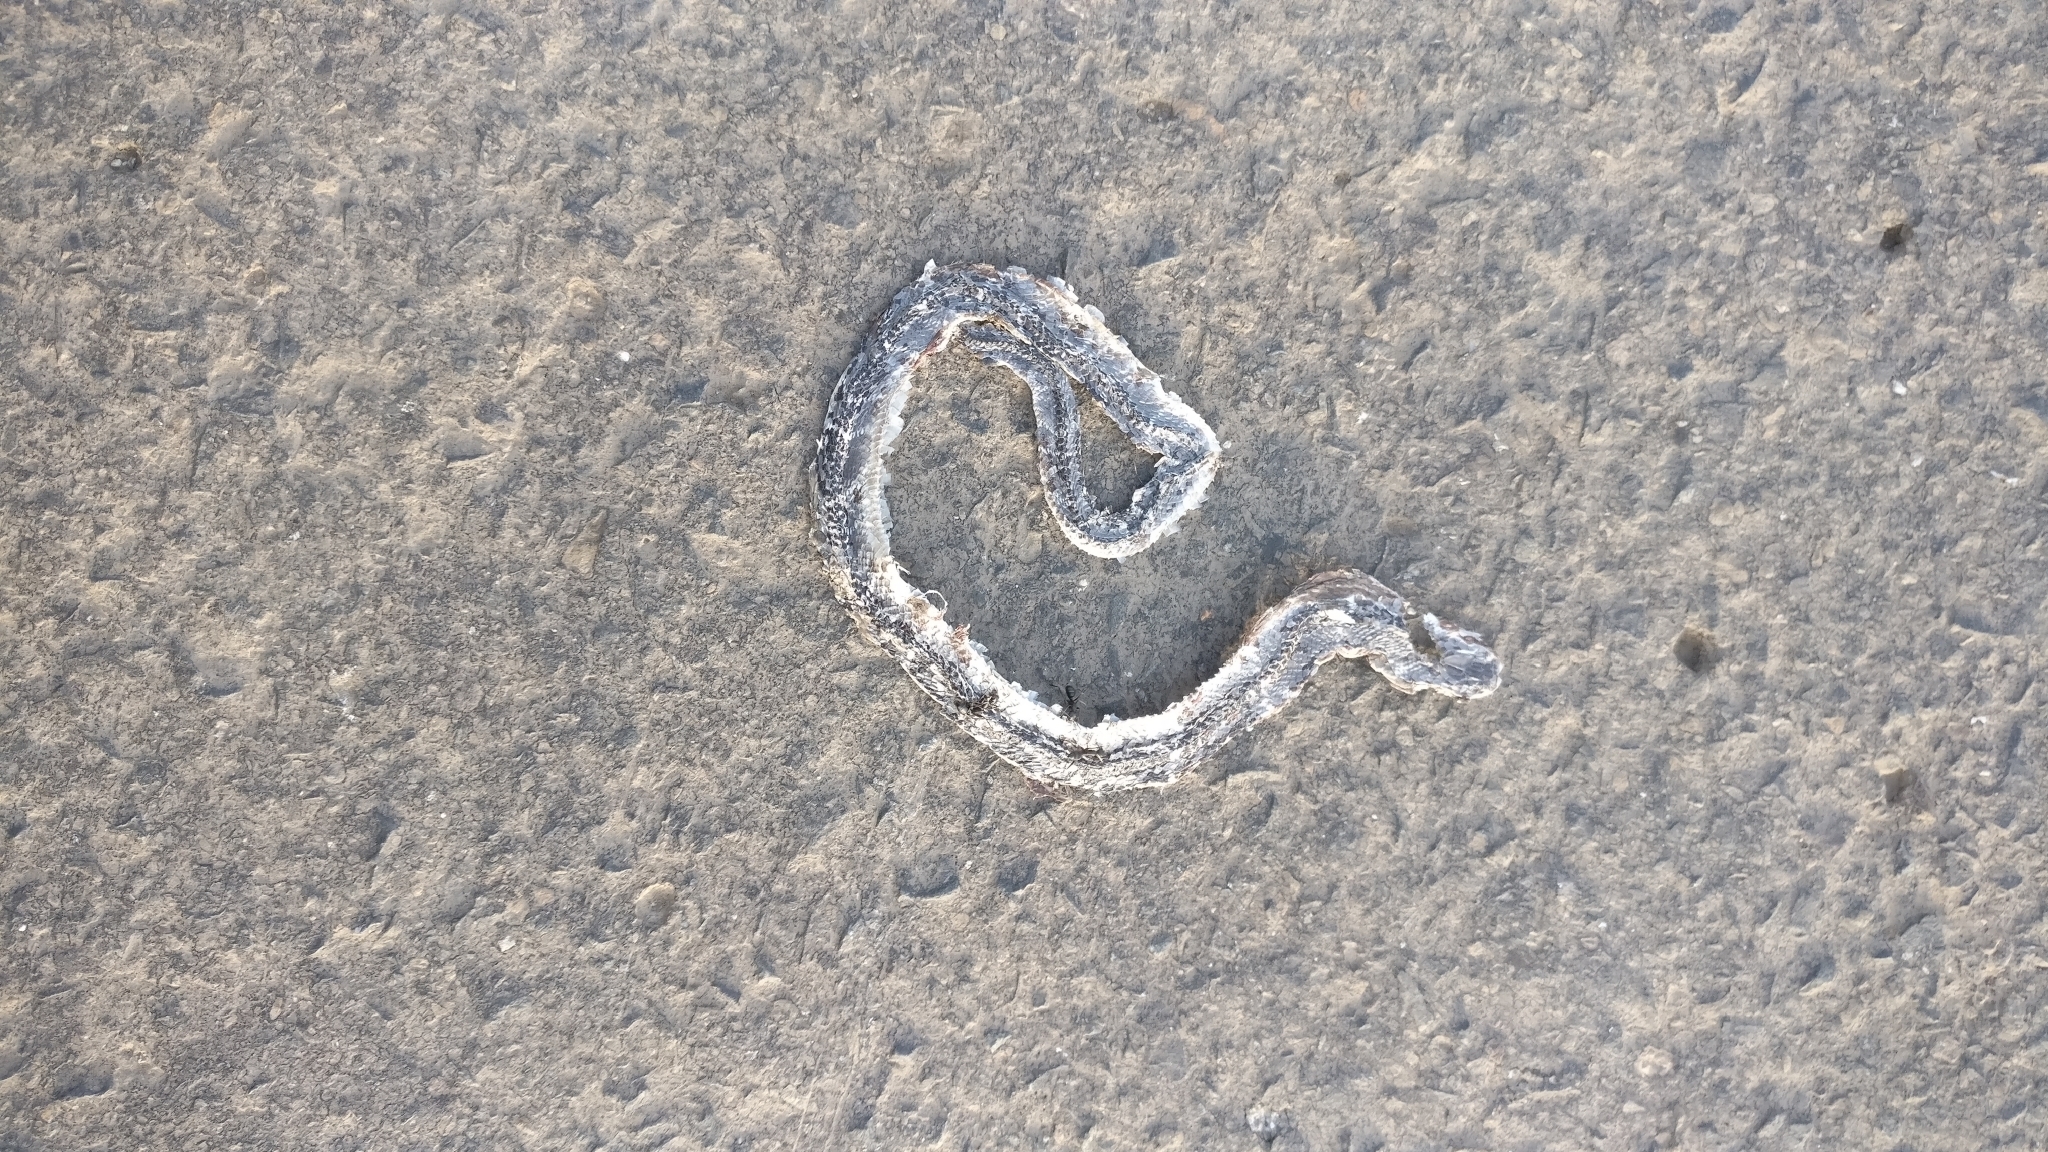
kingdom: Animalia
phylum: Chordata
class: Squamata
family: Elapidae
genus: Bungarus
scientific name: Bungarus caeruleus
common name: Common krait
